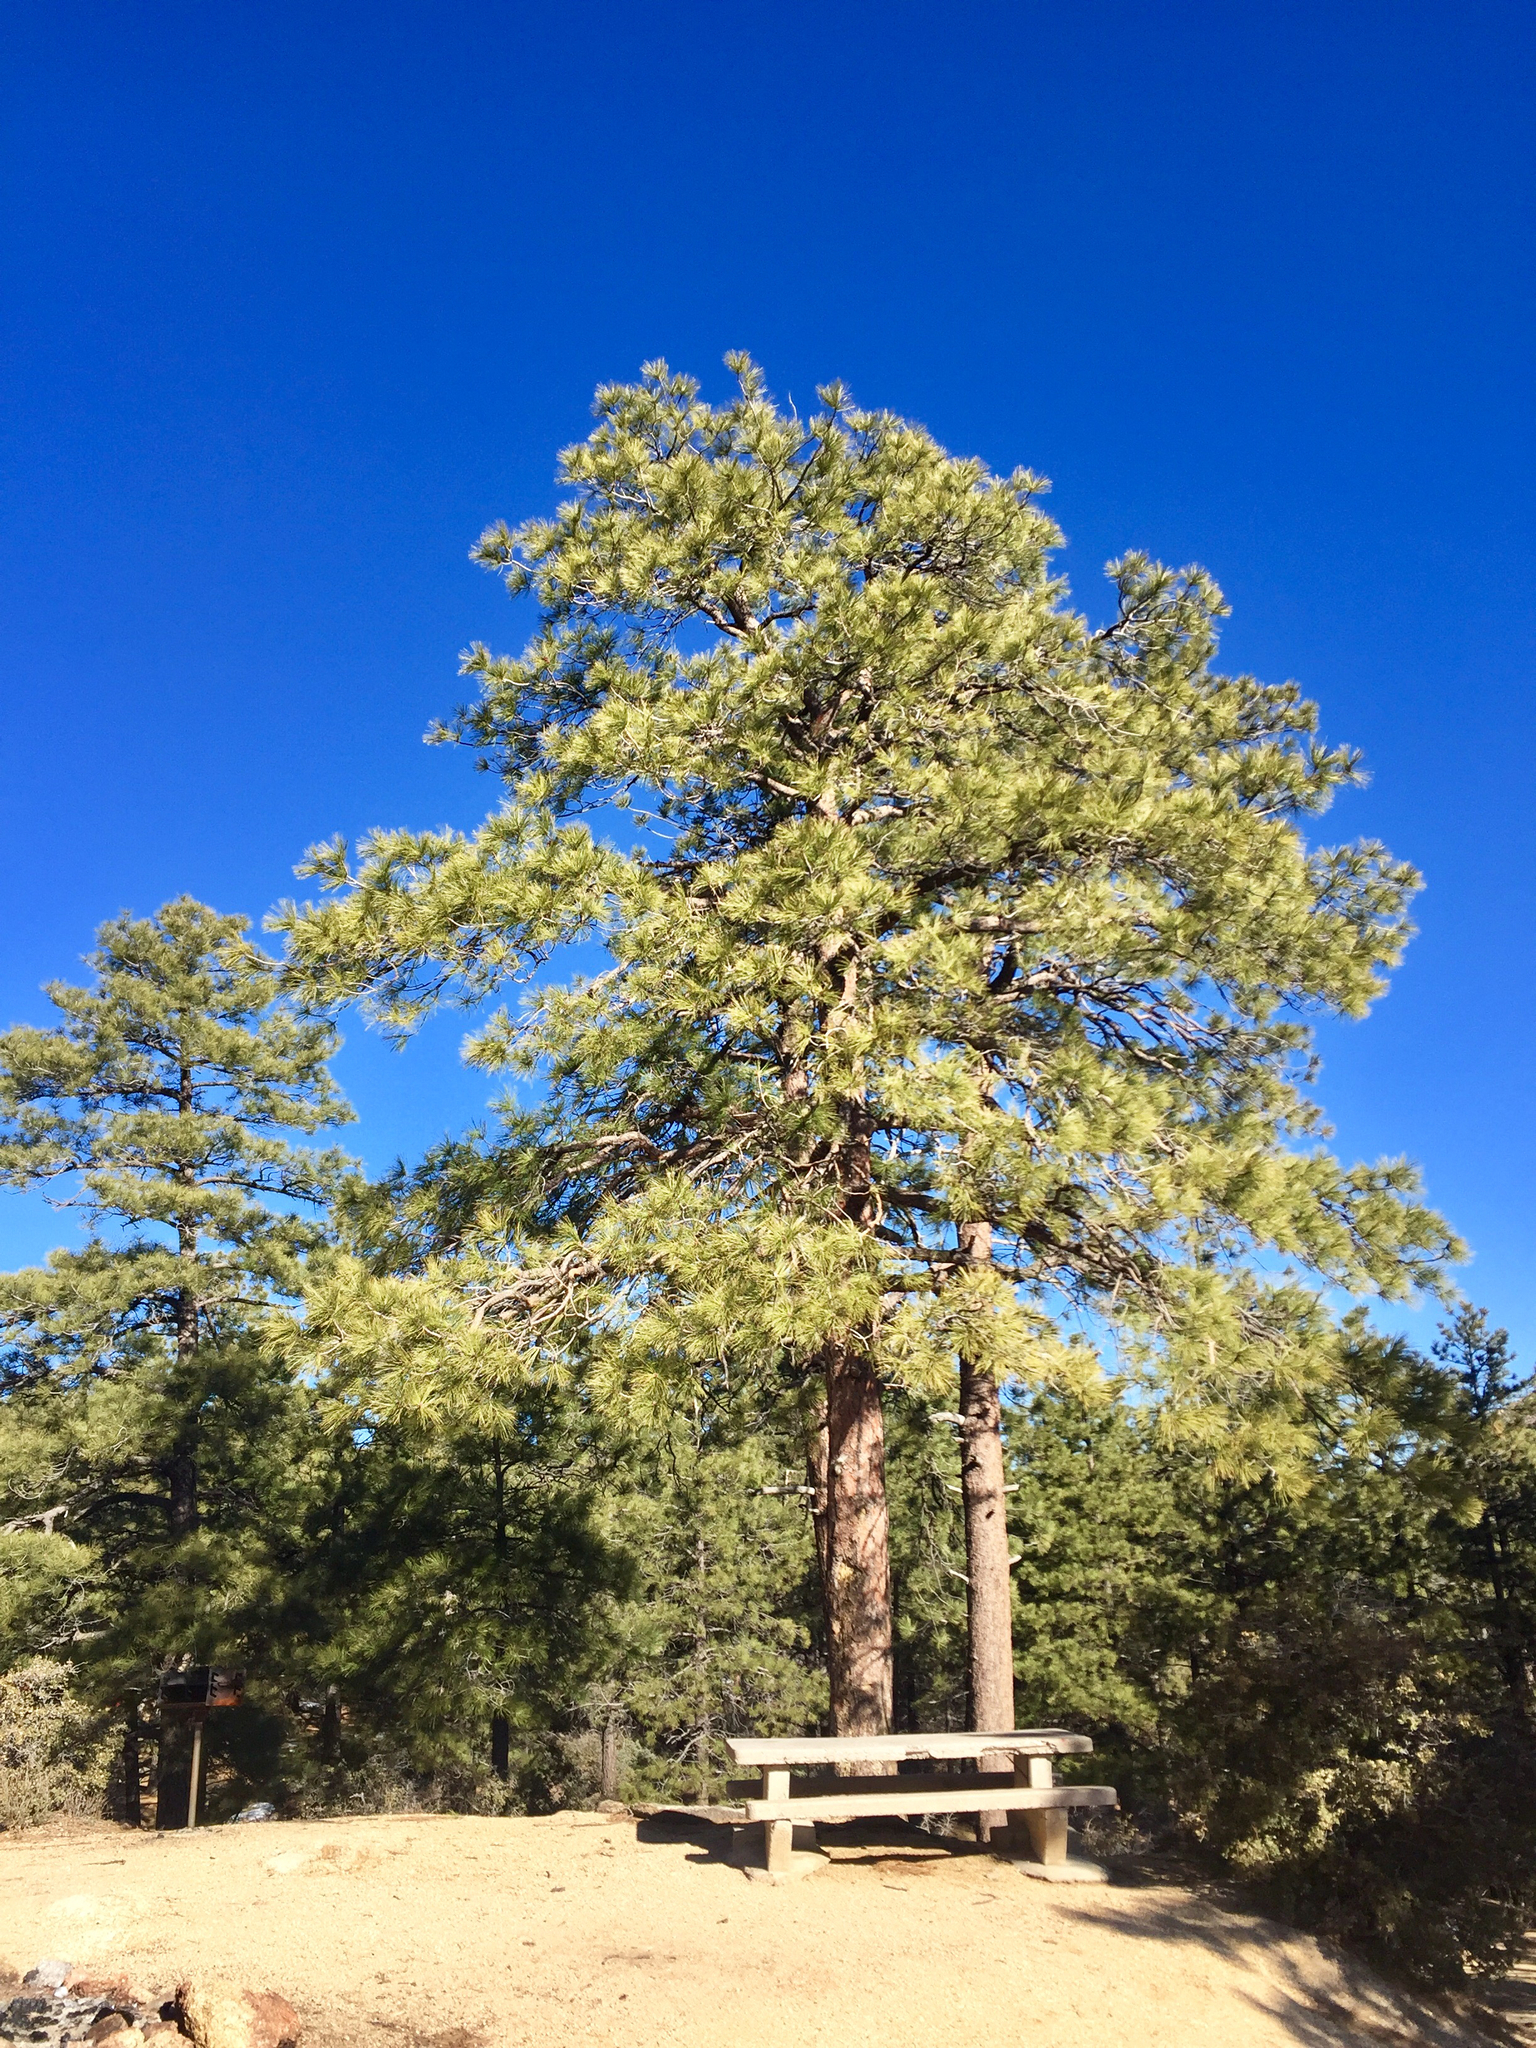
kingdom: Plantae
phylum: Tracheophyta
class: Pinopsida
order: Pinales
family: Pinaceae
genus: Pinus
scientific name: Pinus ponderosa
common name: Western yellow-pine
